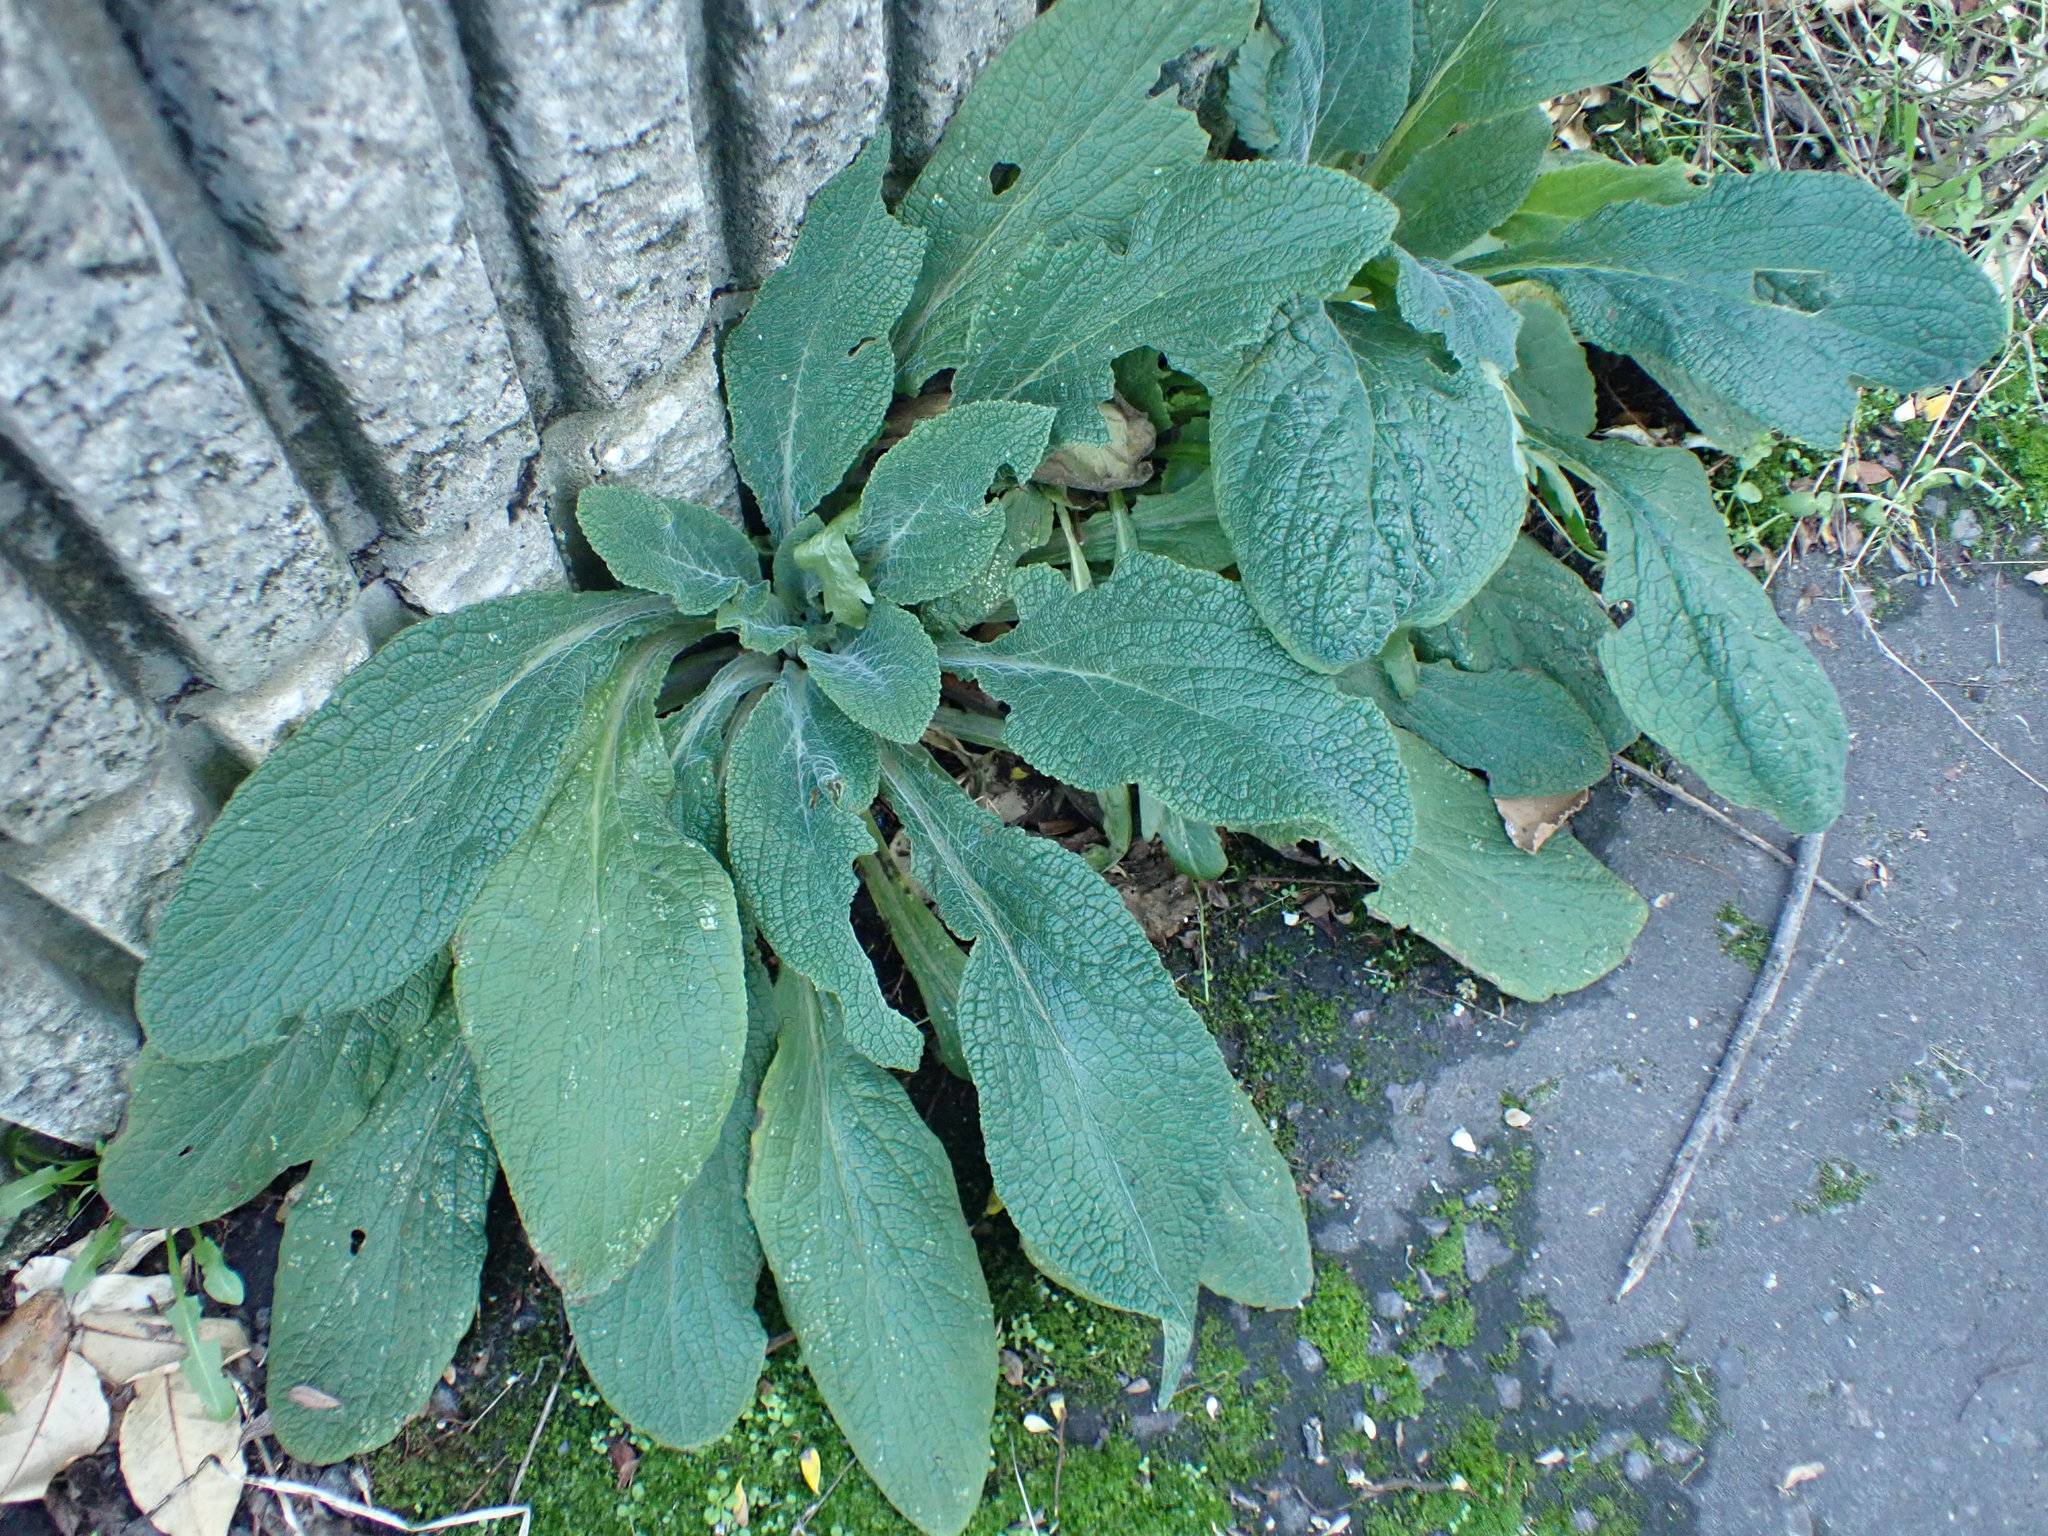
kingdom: Plantae
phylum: Tracheophyta
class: Magnoliopsida
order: Lamiales
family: Plantaginaceae
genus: Digitalis
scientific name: Digitalis purpurea
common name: Foxglove
